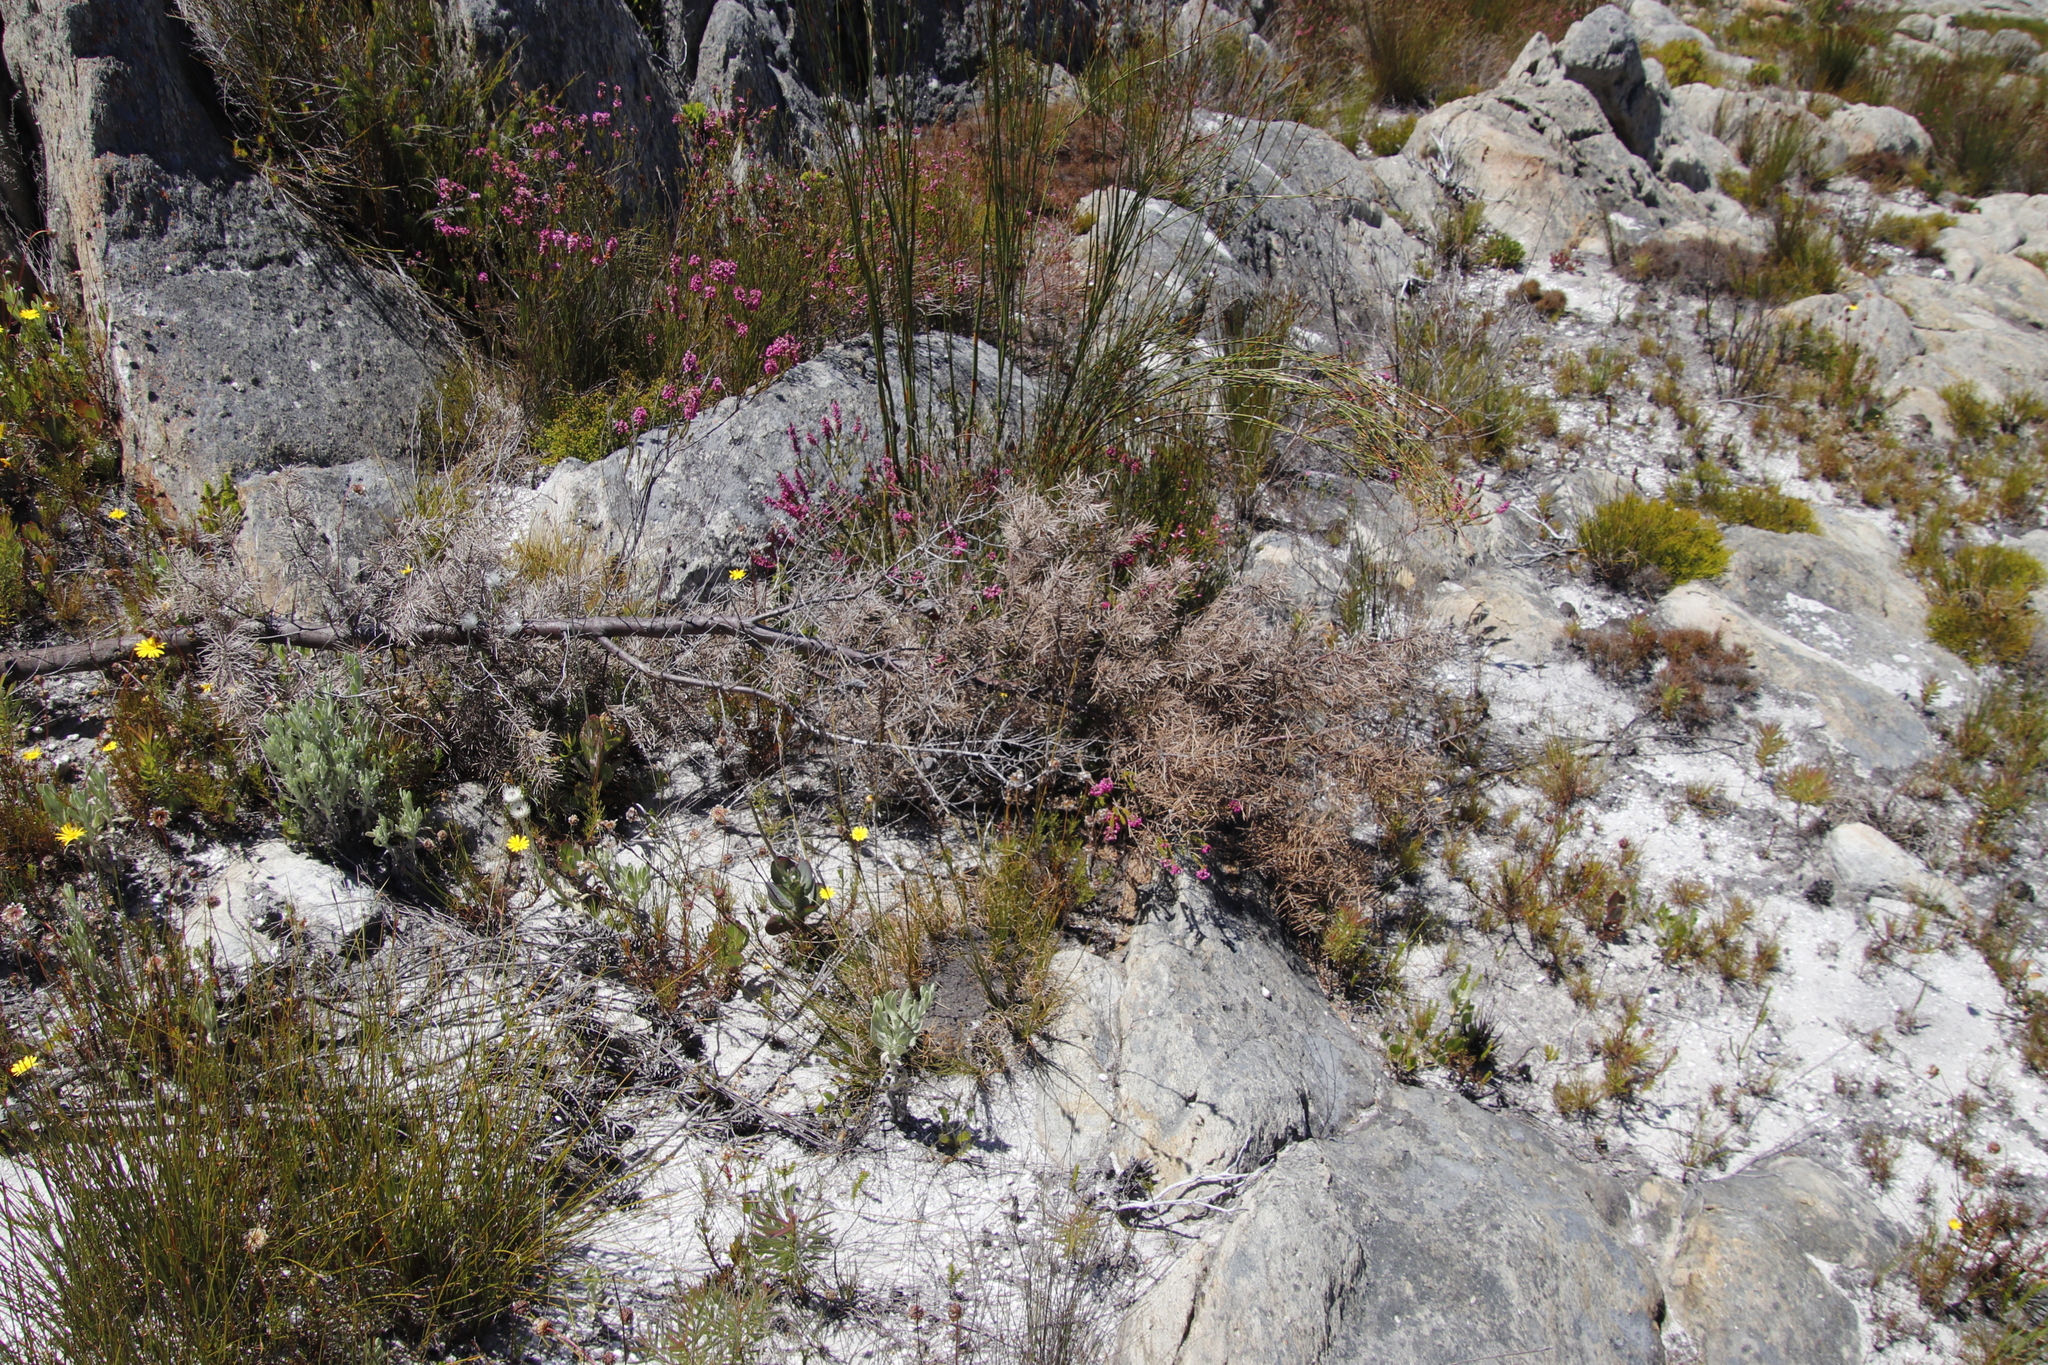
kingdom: Plantae
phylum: Tracheophyta
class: Magnoliopsida
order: Proteales
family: Proteaceae
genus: Hakea
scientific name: Hakea sericea
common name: Needle bush
